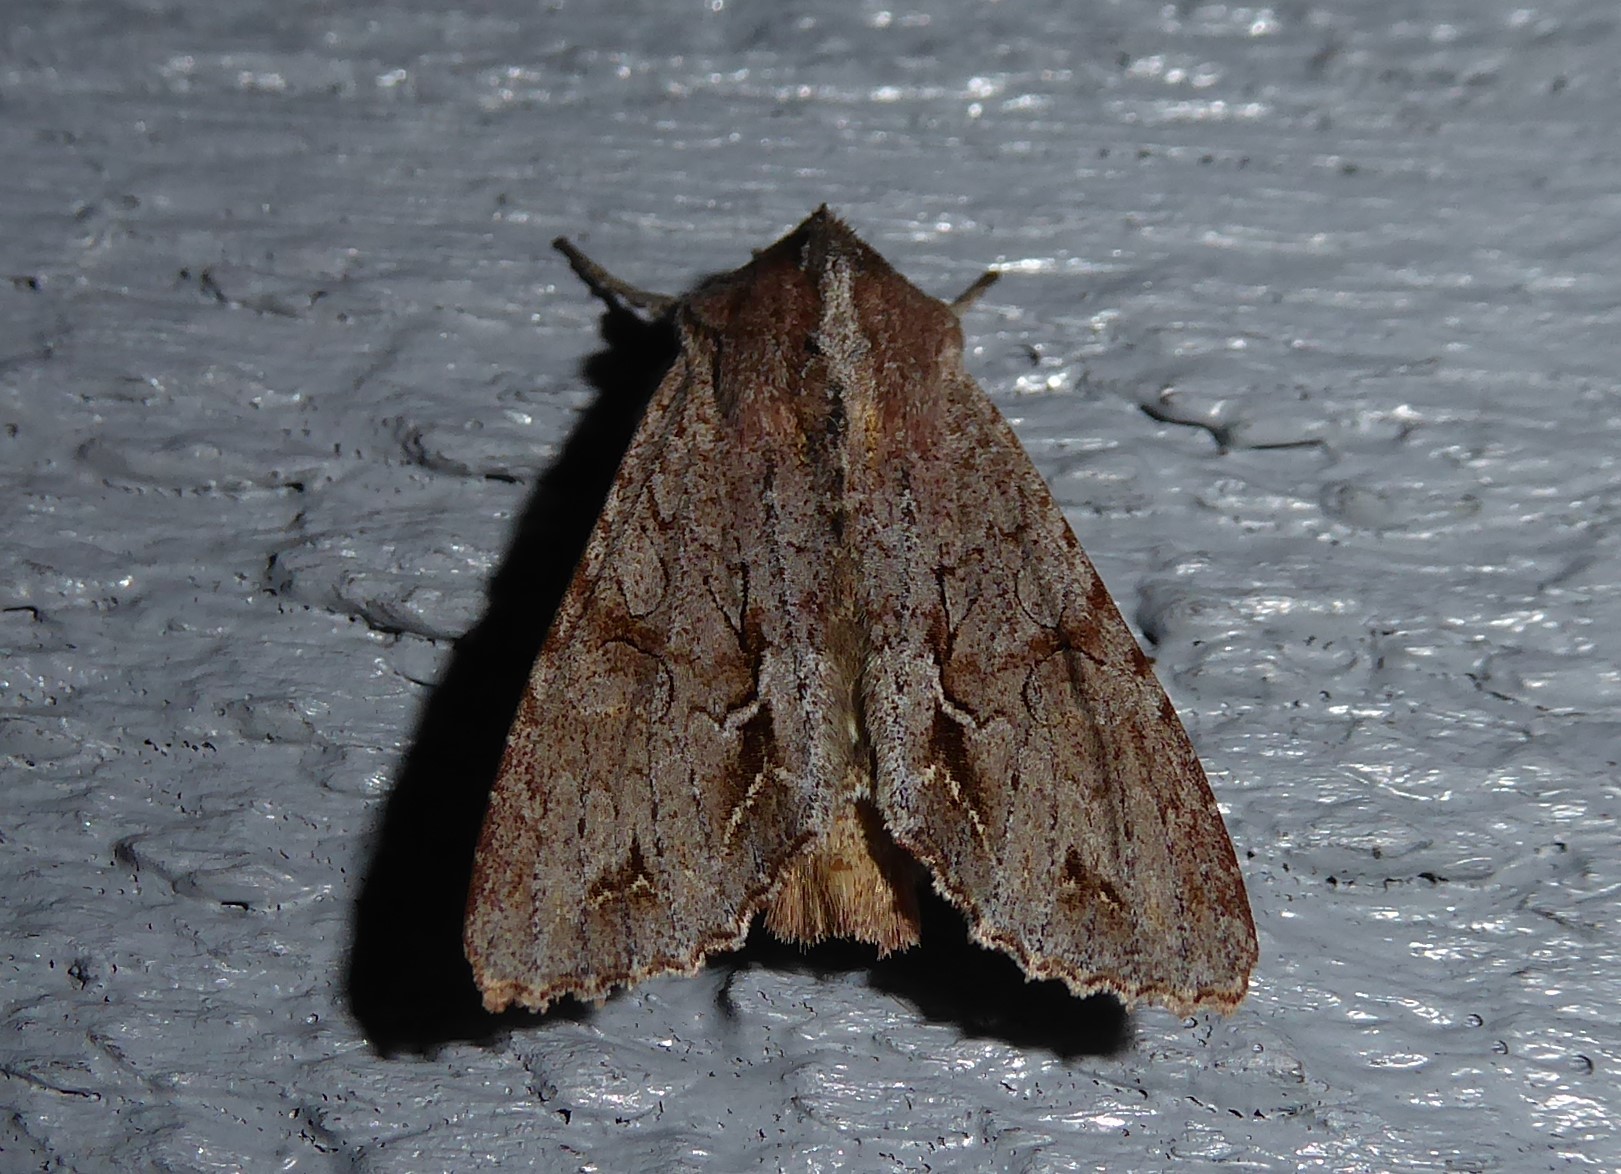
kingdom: Animalia
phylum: Arthropoda
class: Insecta
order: Lepidoptera
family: Noctuidae
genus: Ichneutica
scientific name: Ichneutica
